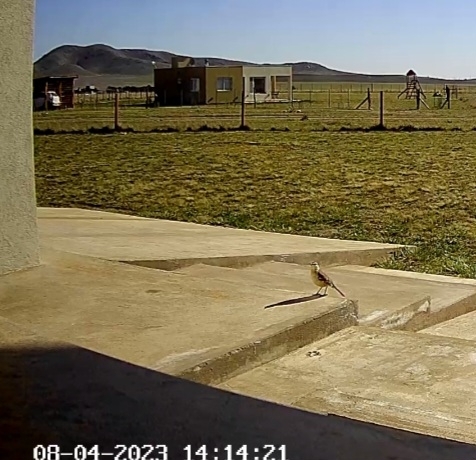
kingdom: Animalia
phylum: Chordata
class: Aves
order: Passeriformes
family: Mimidae
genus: Mimus
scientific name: Mimus saturninus
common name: Chalk-browed mockingbird
